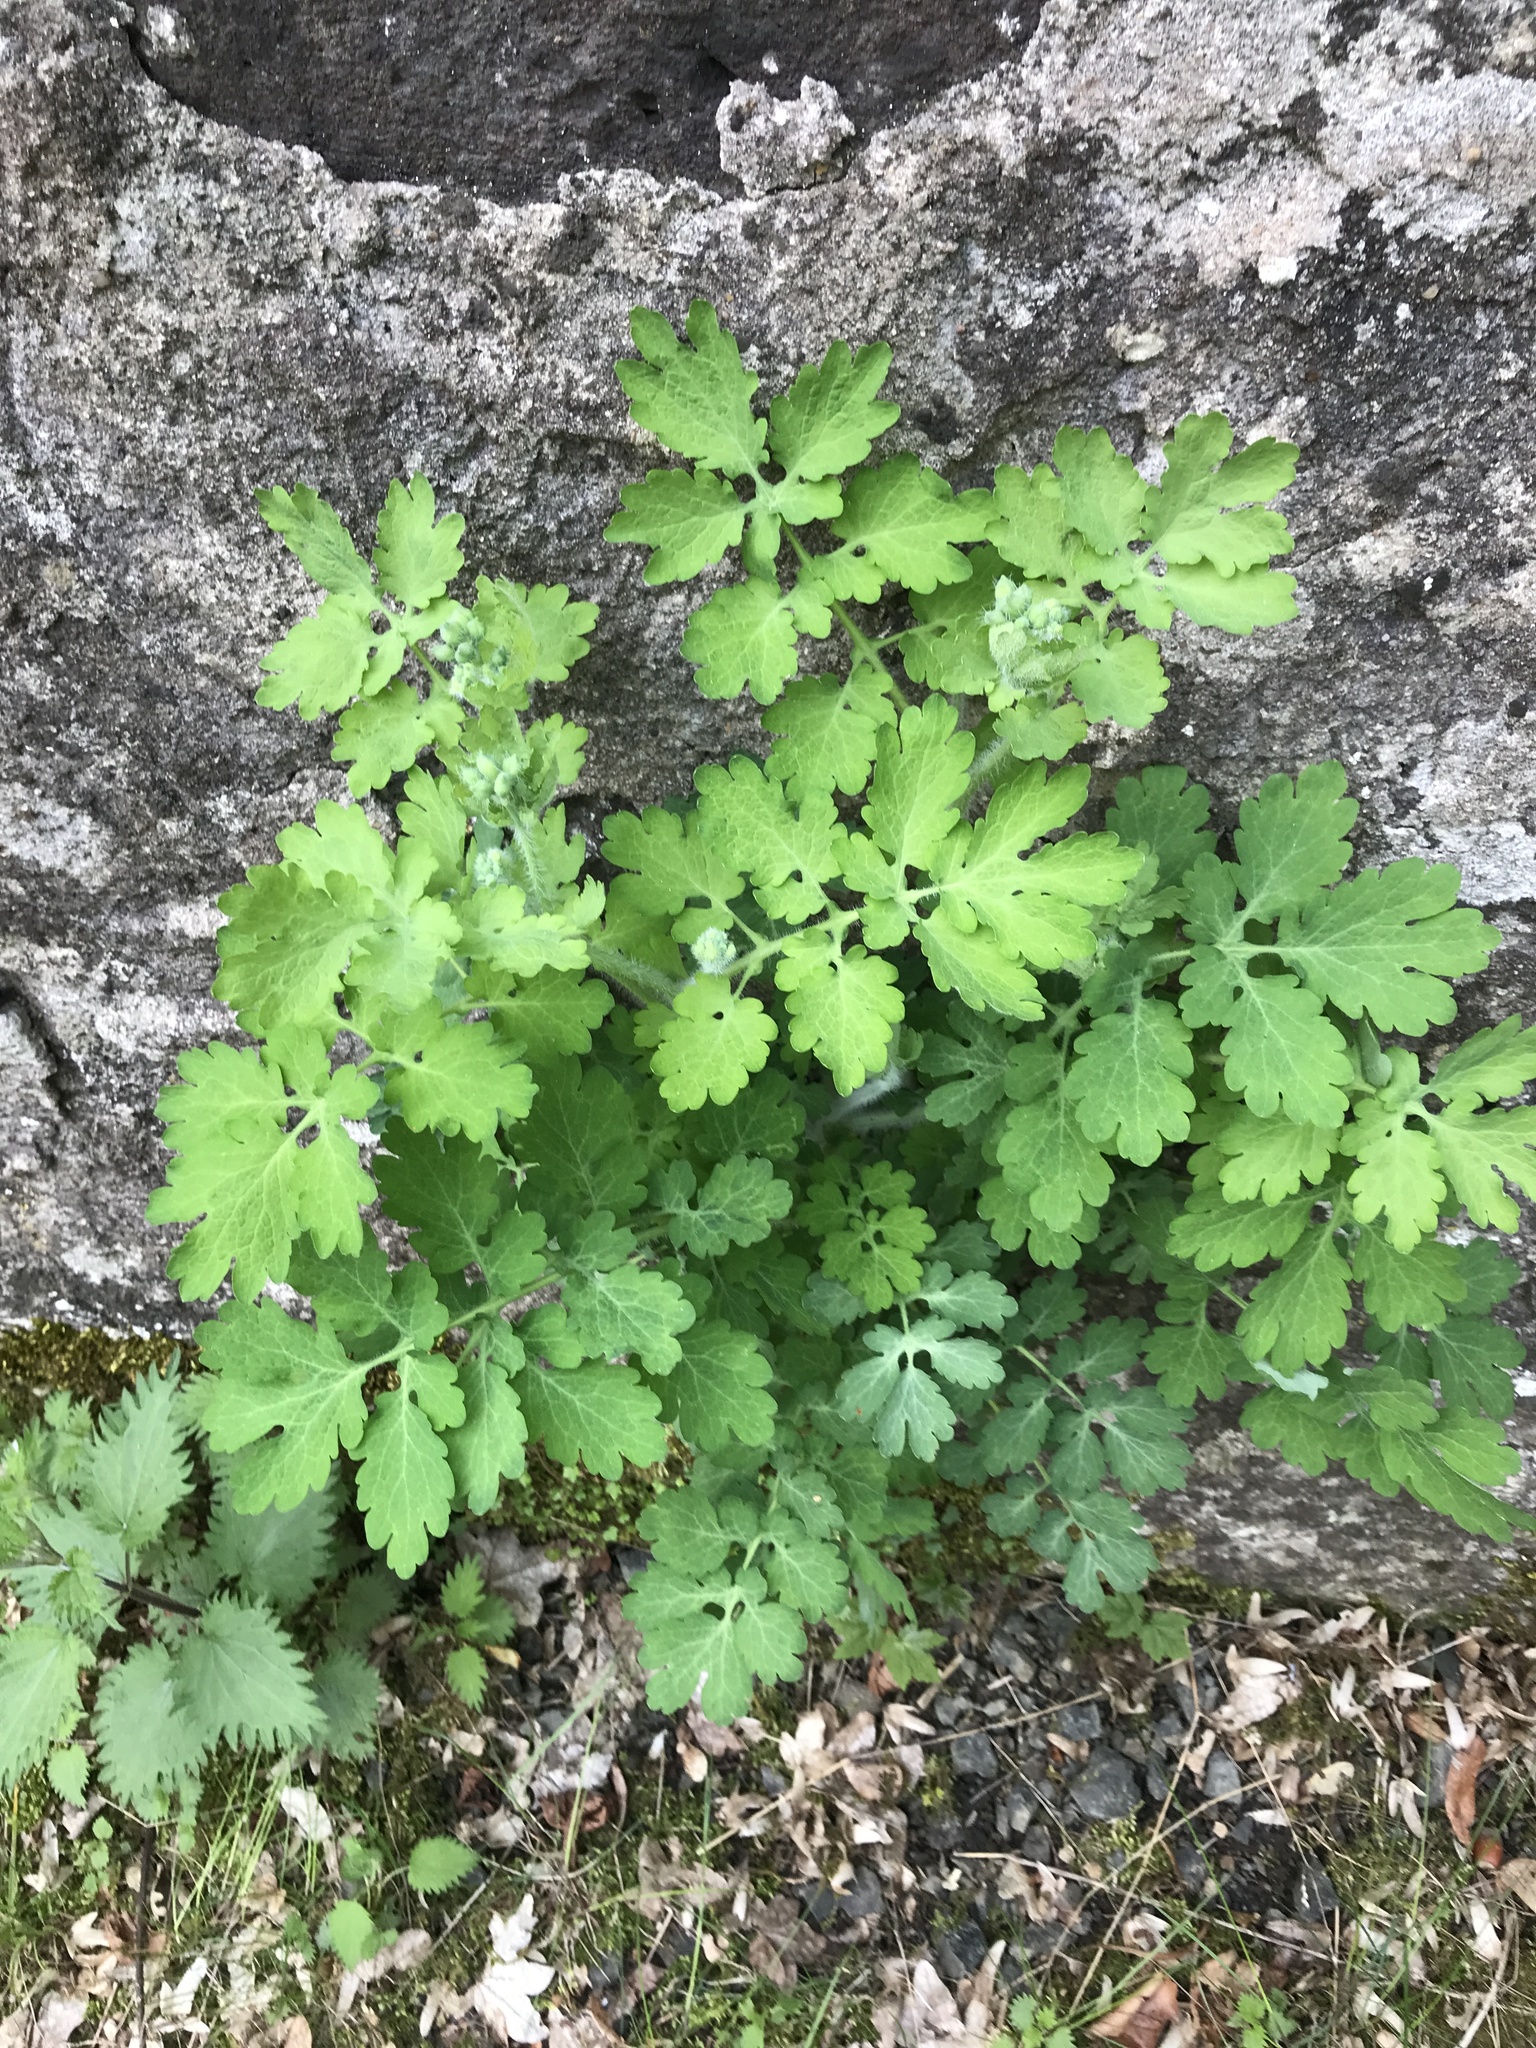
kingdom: Plantae
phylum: Tracheophyta
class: Magnoliopsida
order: Ranunculales
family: Papaveraceae
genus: Chelidonium
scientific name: Chelidonium majus
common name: Greater celandine
